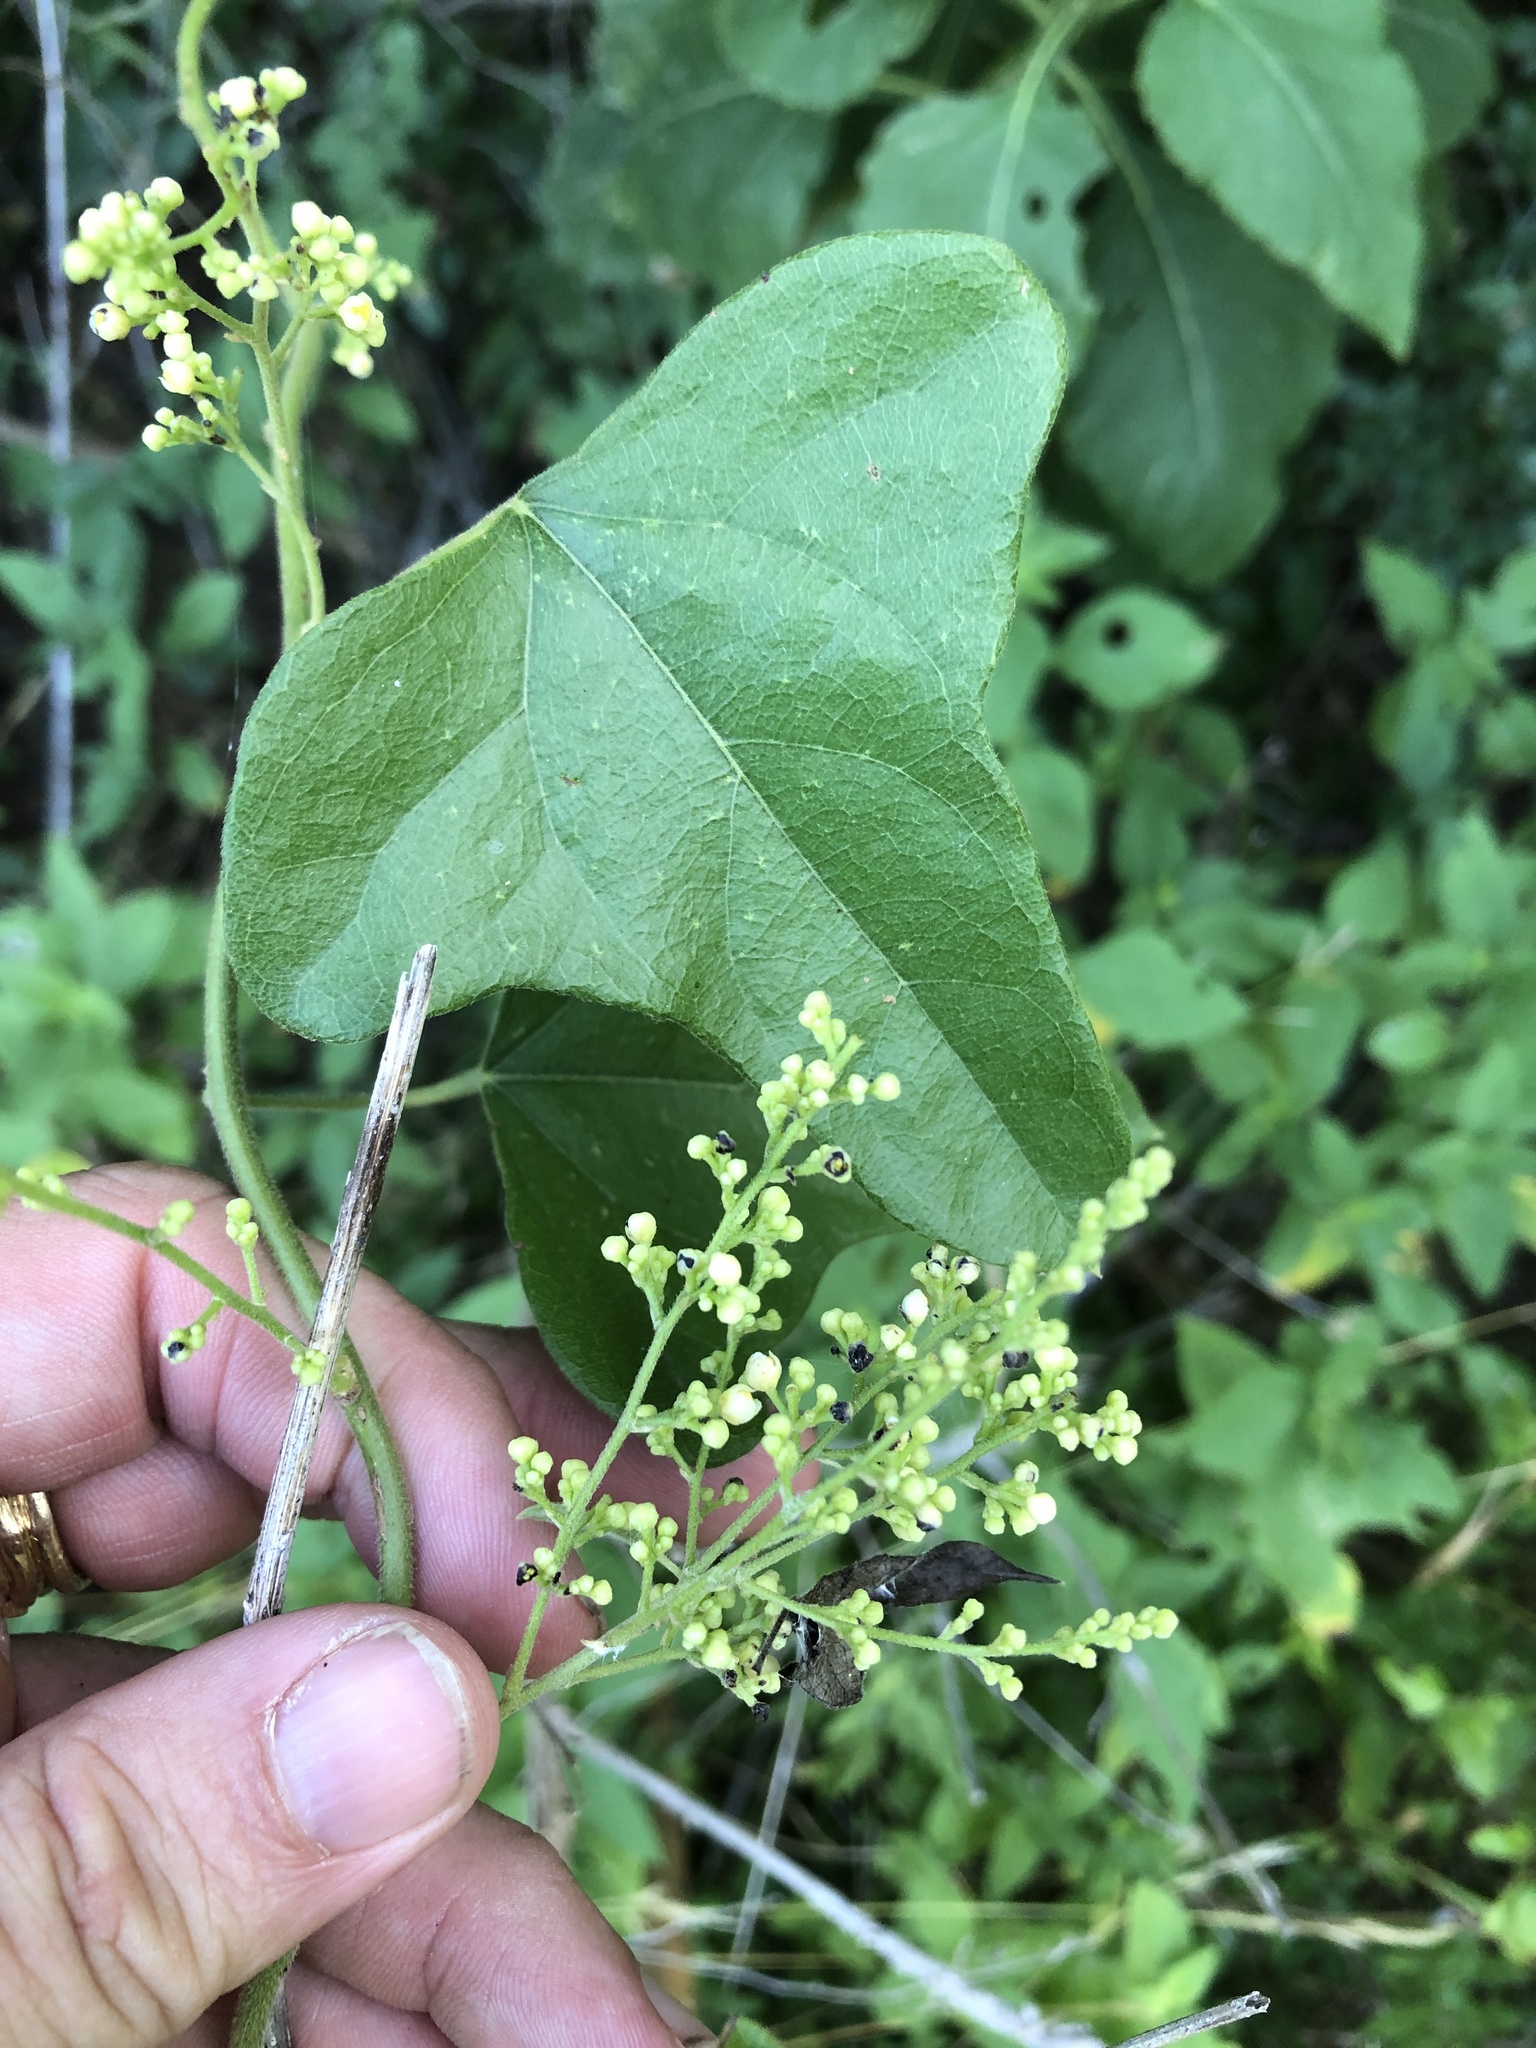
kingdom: Plantae
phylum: Tracheophyta
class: Magnoliopsida
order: Ranunculales
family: Menispermaceae
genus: Cocculus
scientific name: Cocculus carolinus
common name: Carolina moonseed
